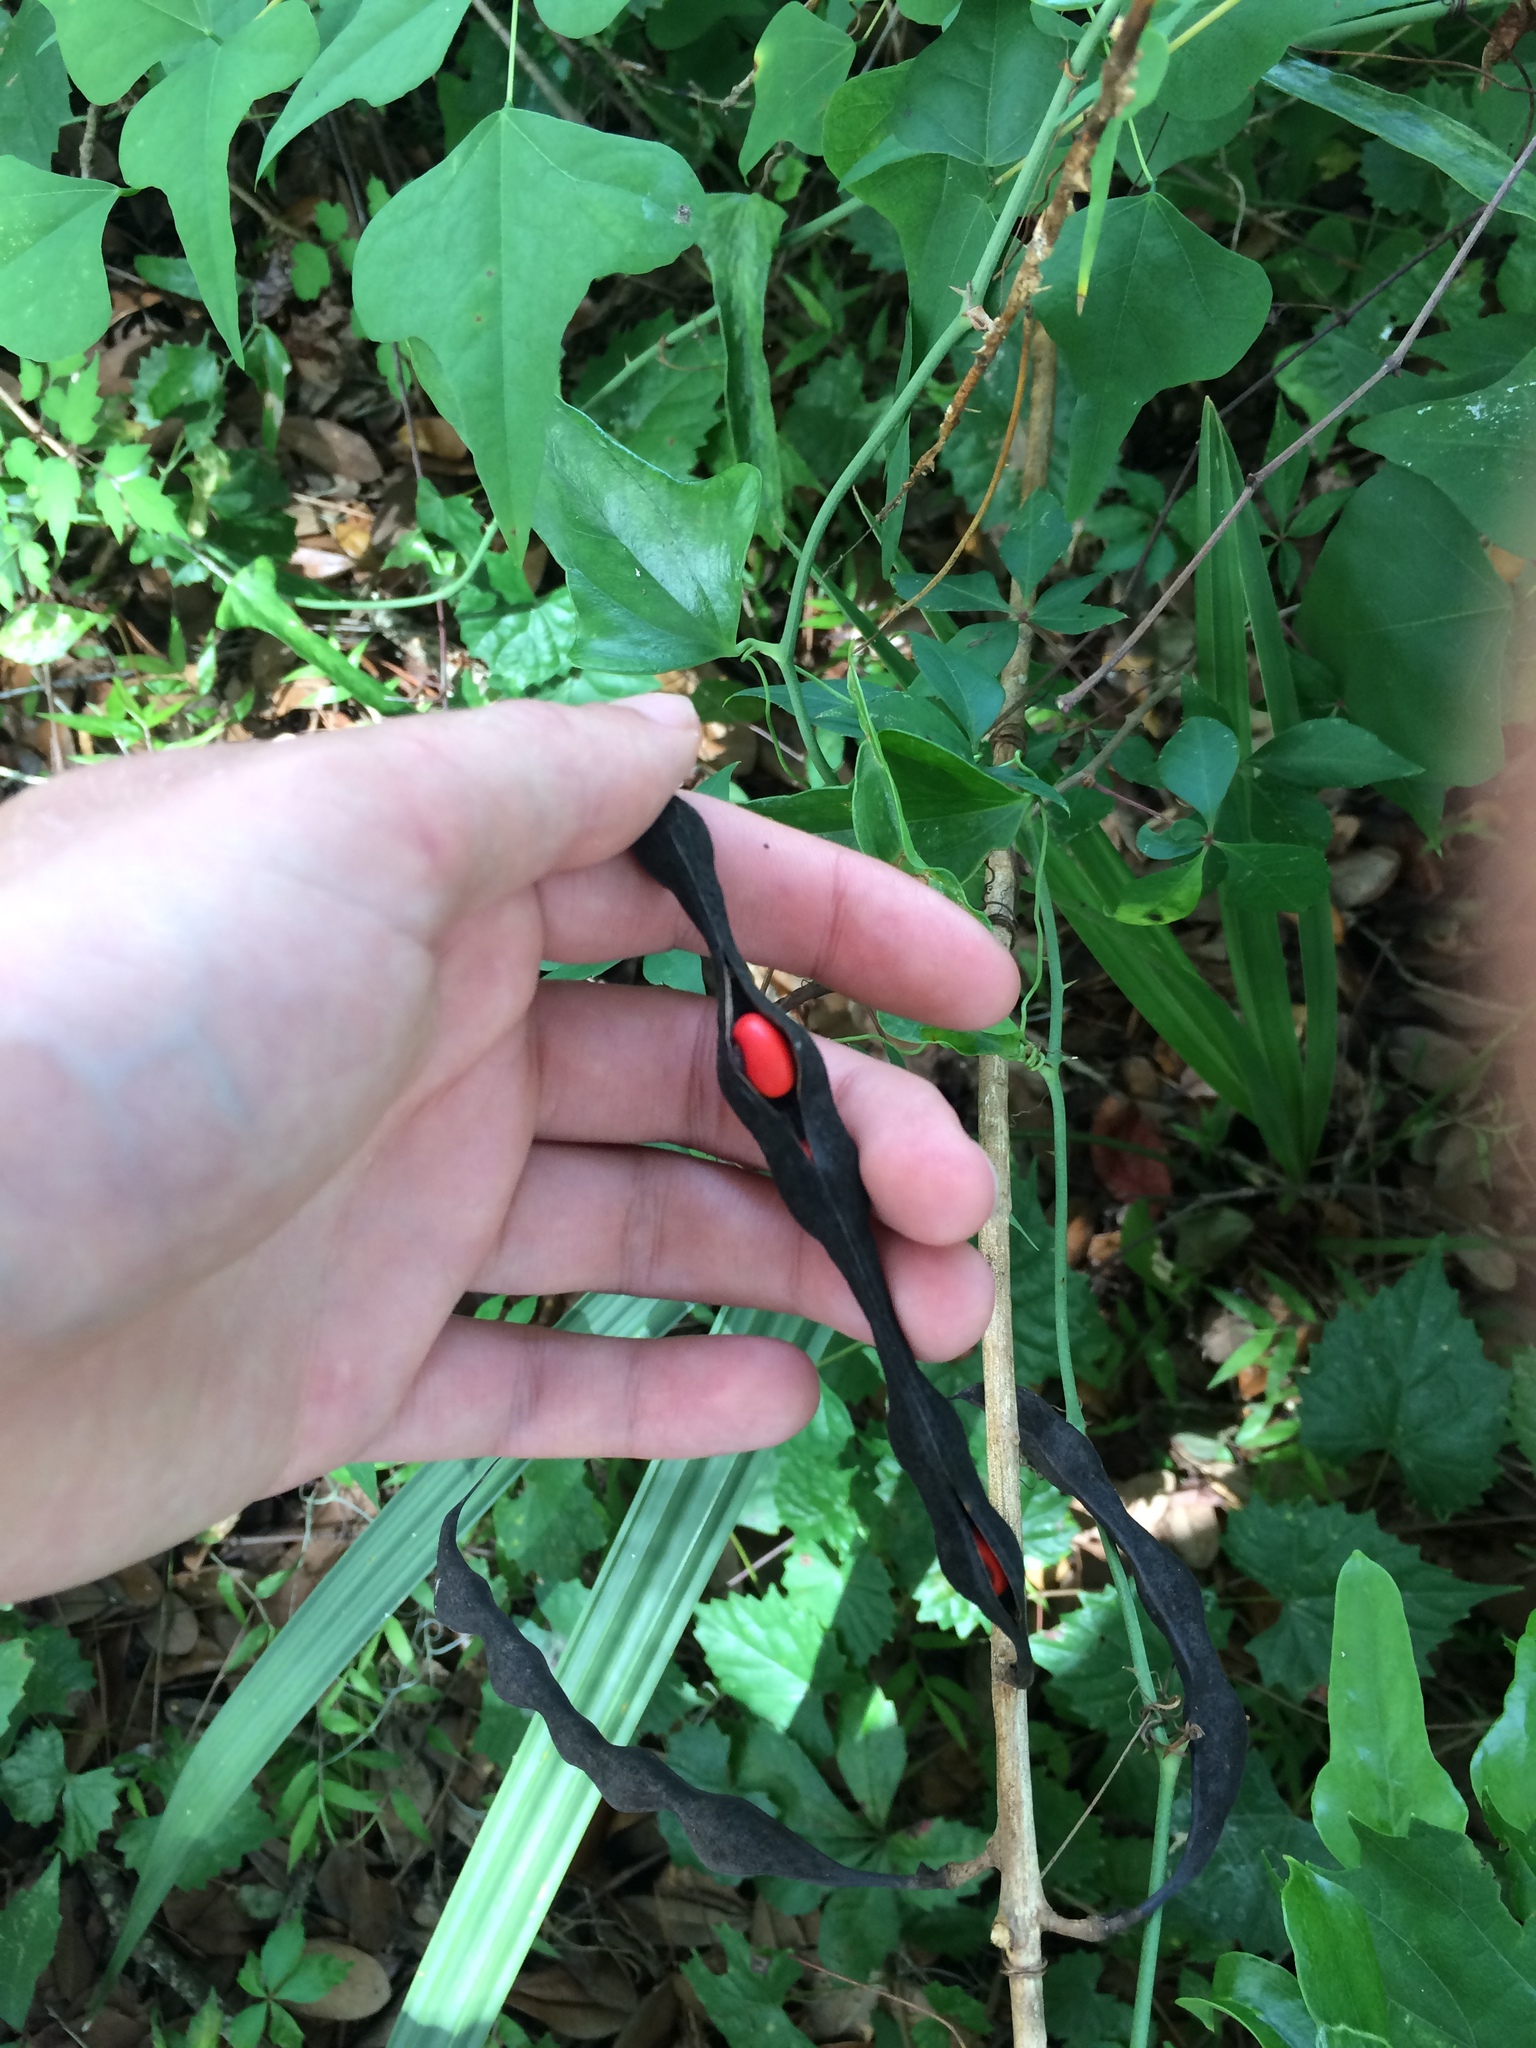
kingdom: Plantae
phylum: Tracheophyta
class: Magnoliopsida
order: Fabales
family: Fabaceae
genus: Erythrina
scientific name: Erythrina herbacea
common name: Coral-bean
